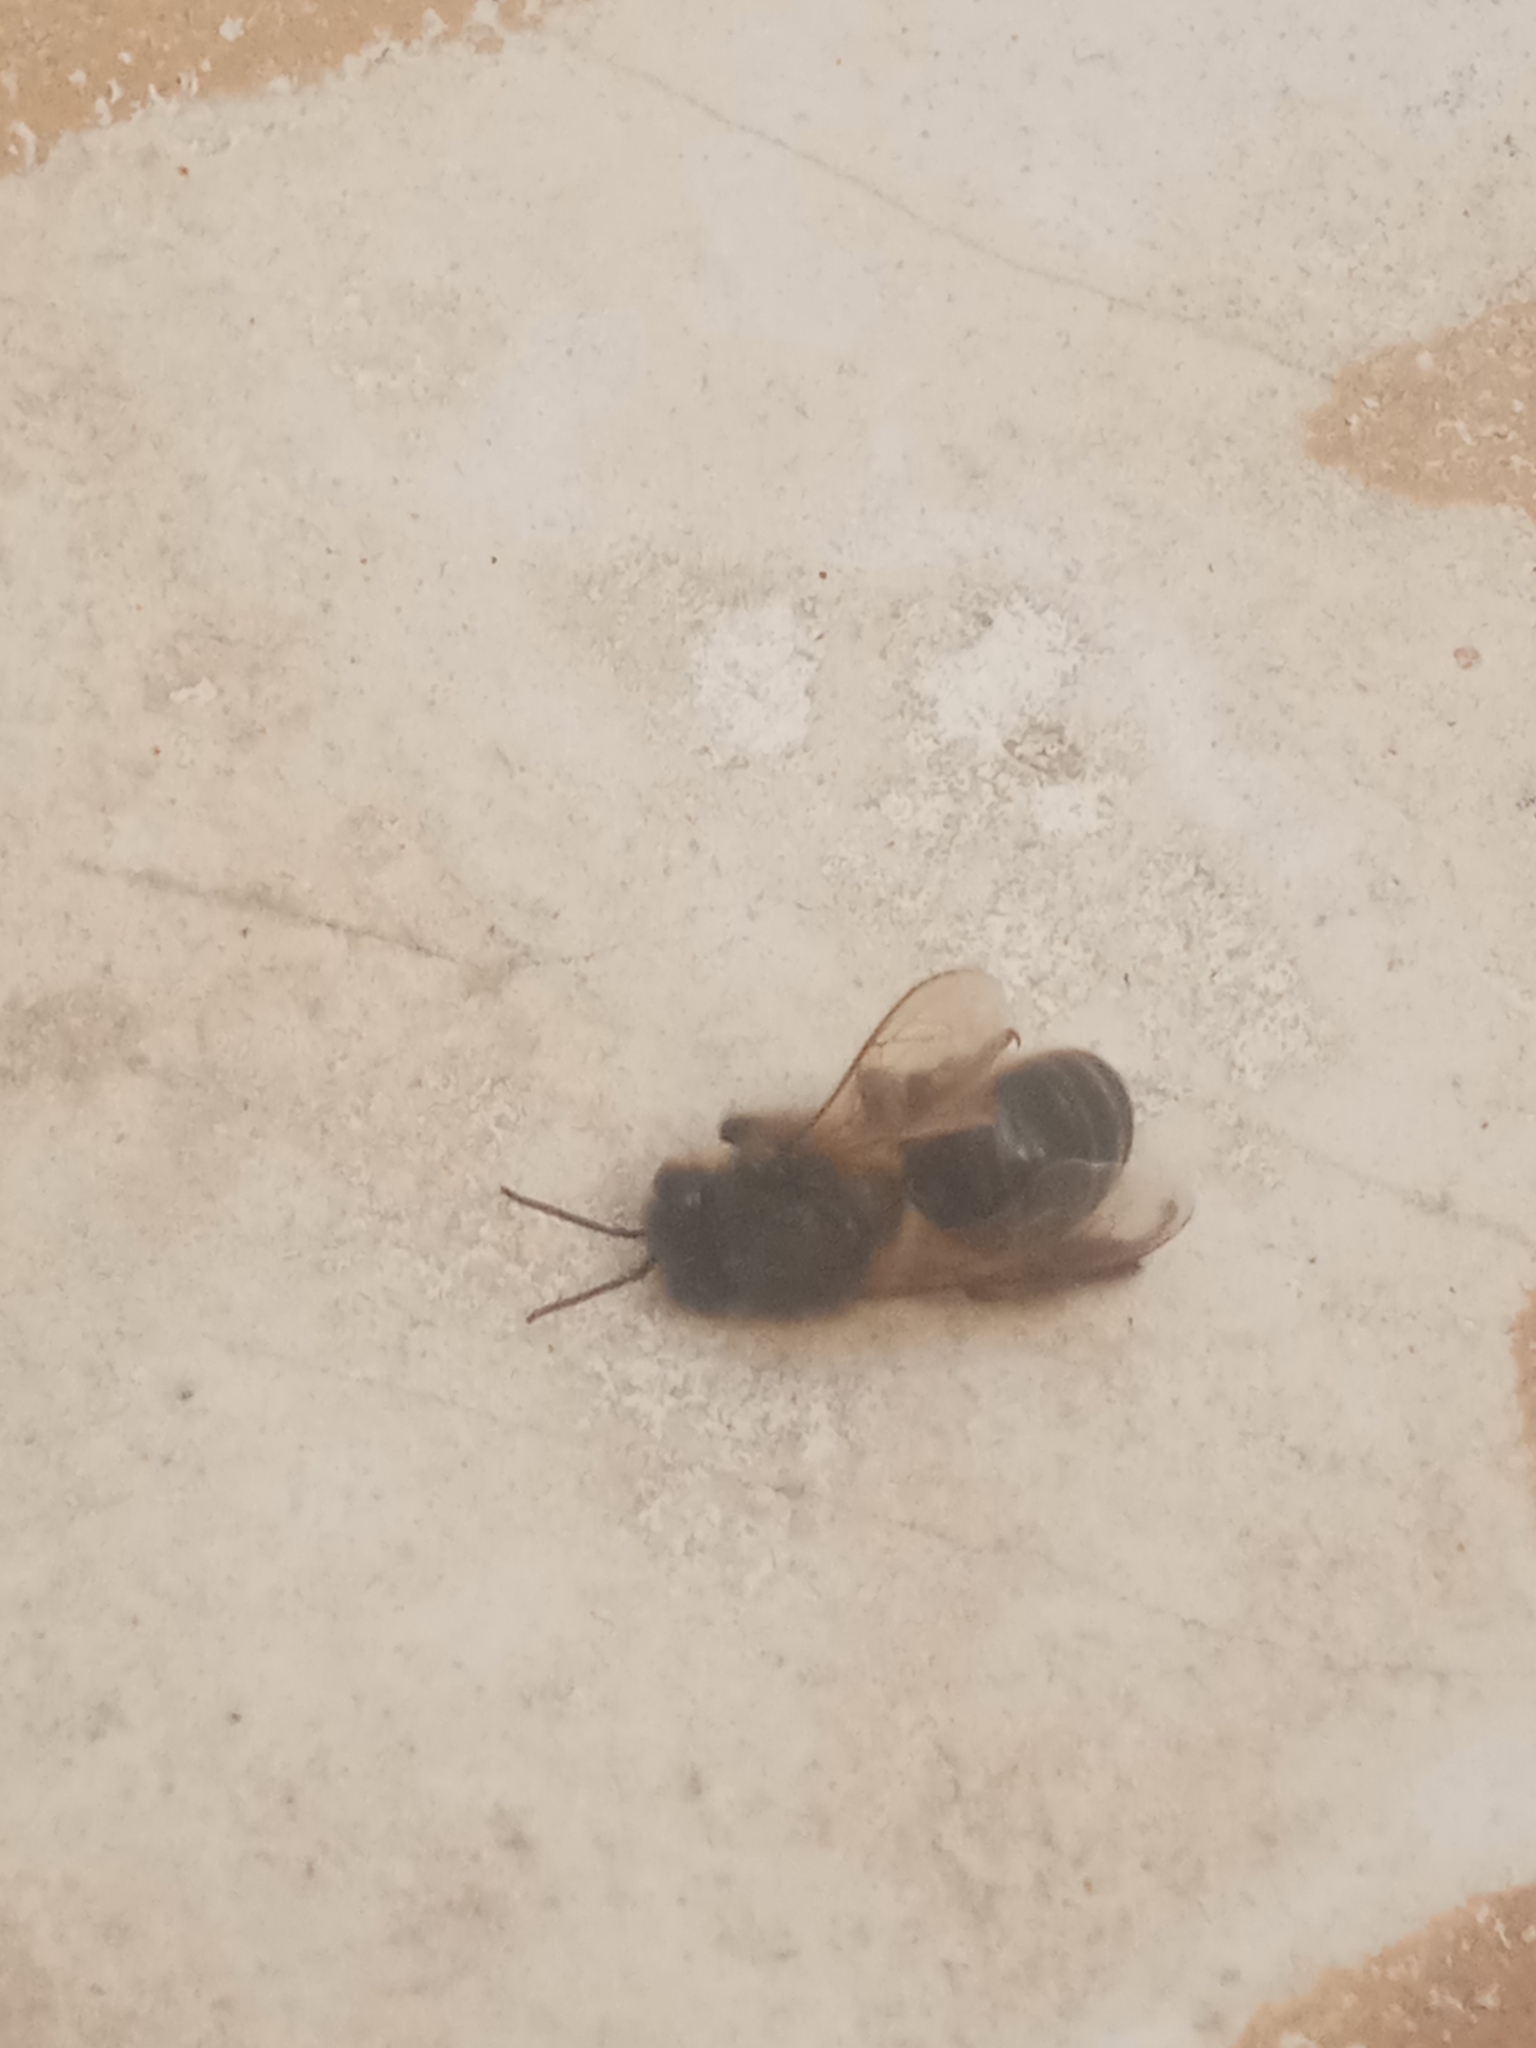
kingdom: Animalia
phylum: Arthropoda
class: Insecta
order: Hymenoptera
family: Apidae
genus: Apis
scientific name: Apis mellifera
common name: Honey bee
